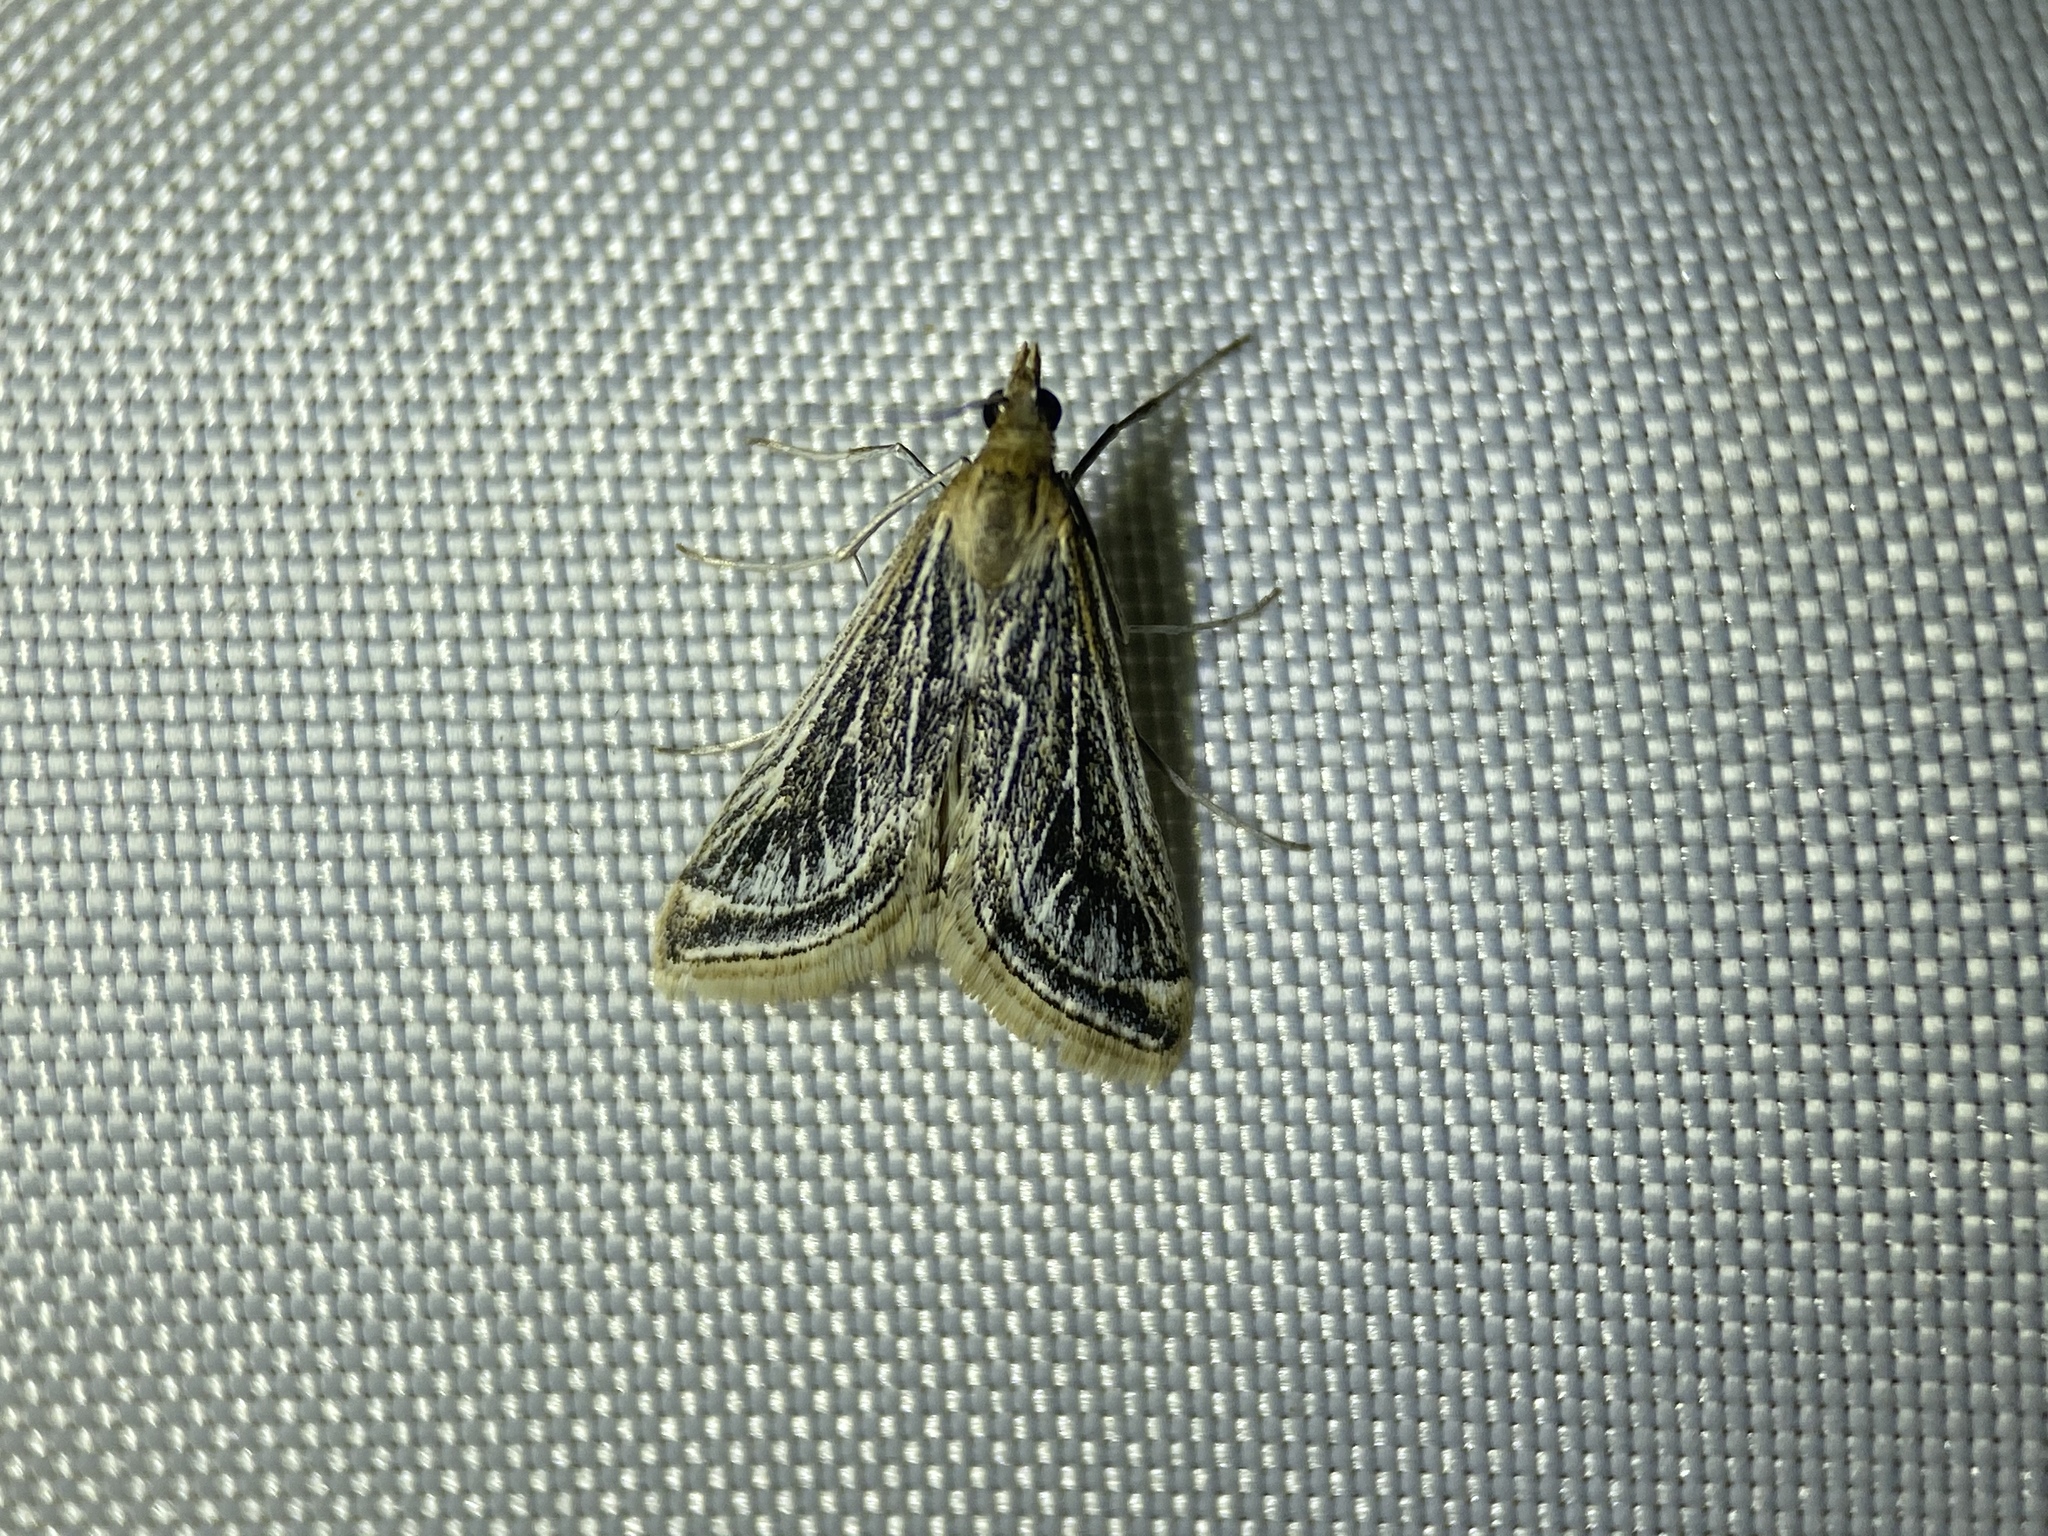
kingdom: Animalia
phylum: Arthropoda
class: Insecta
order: Lepidoptera
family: Crambidae
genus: Pyrausta
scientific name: Pyrausta linealis
